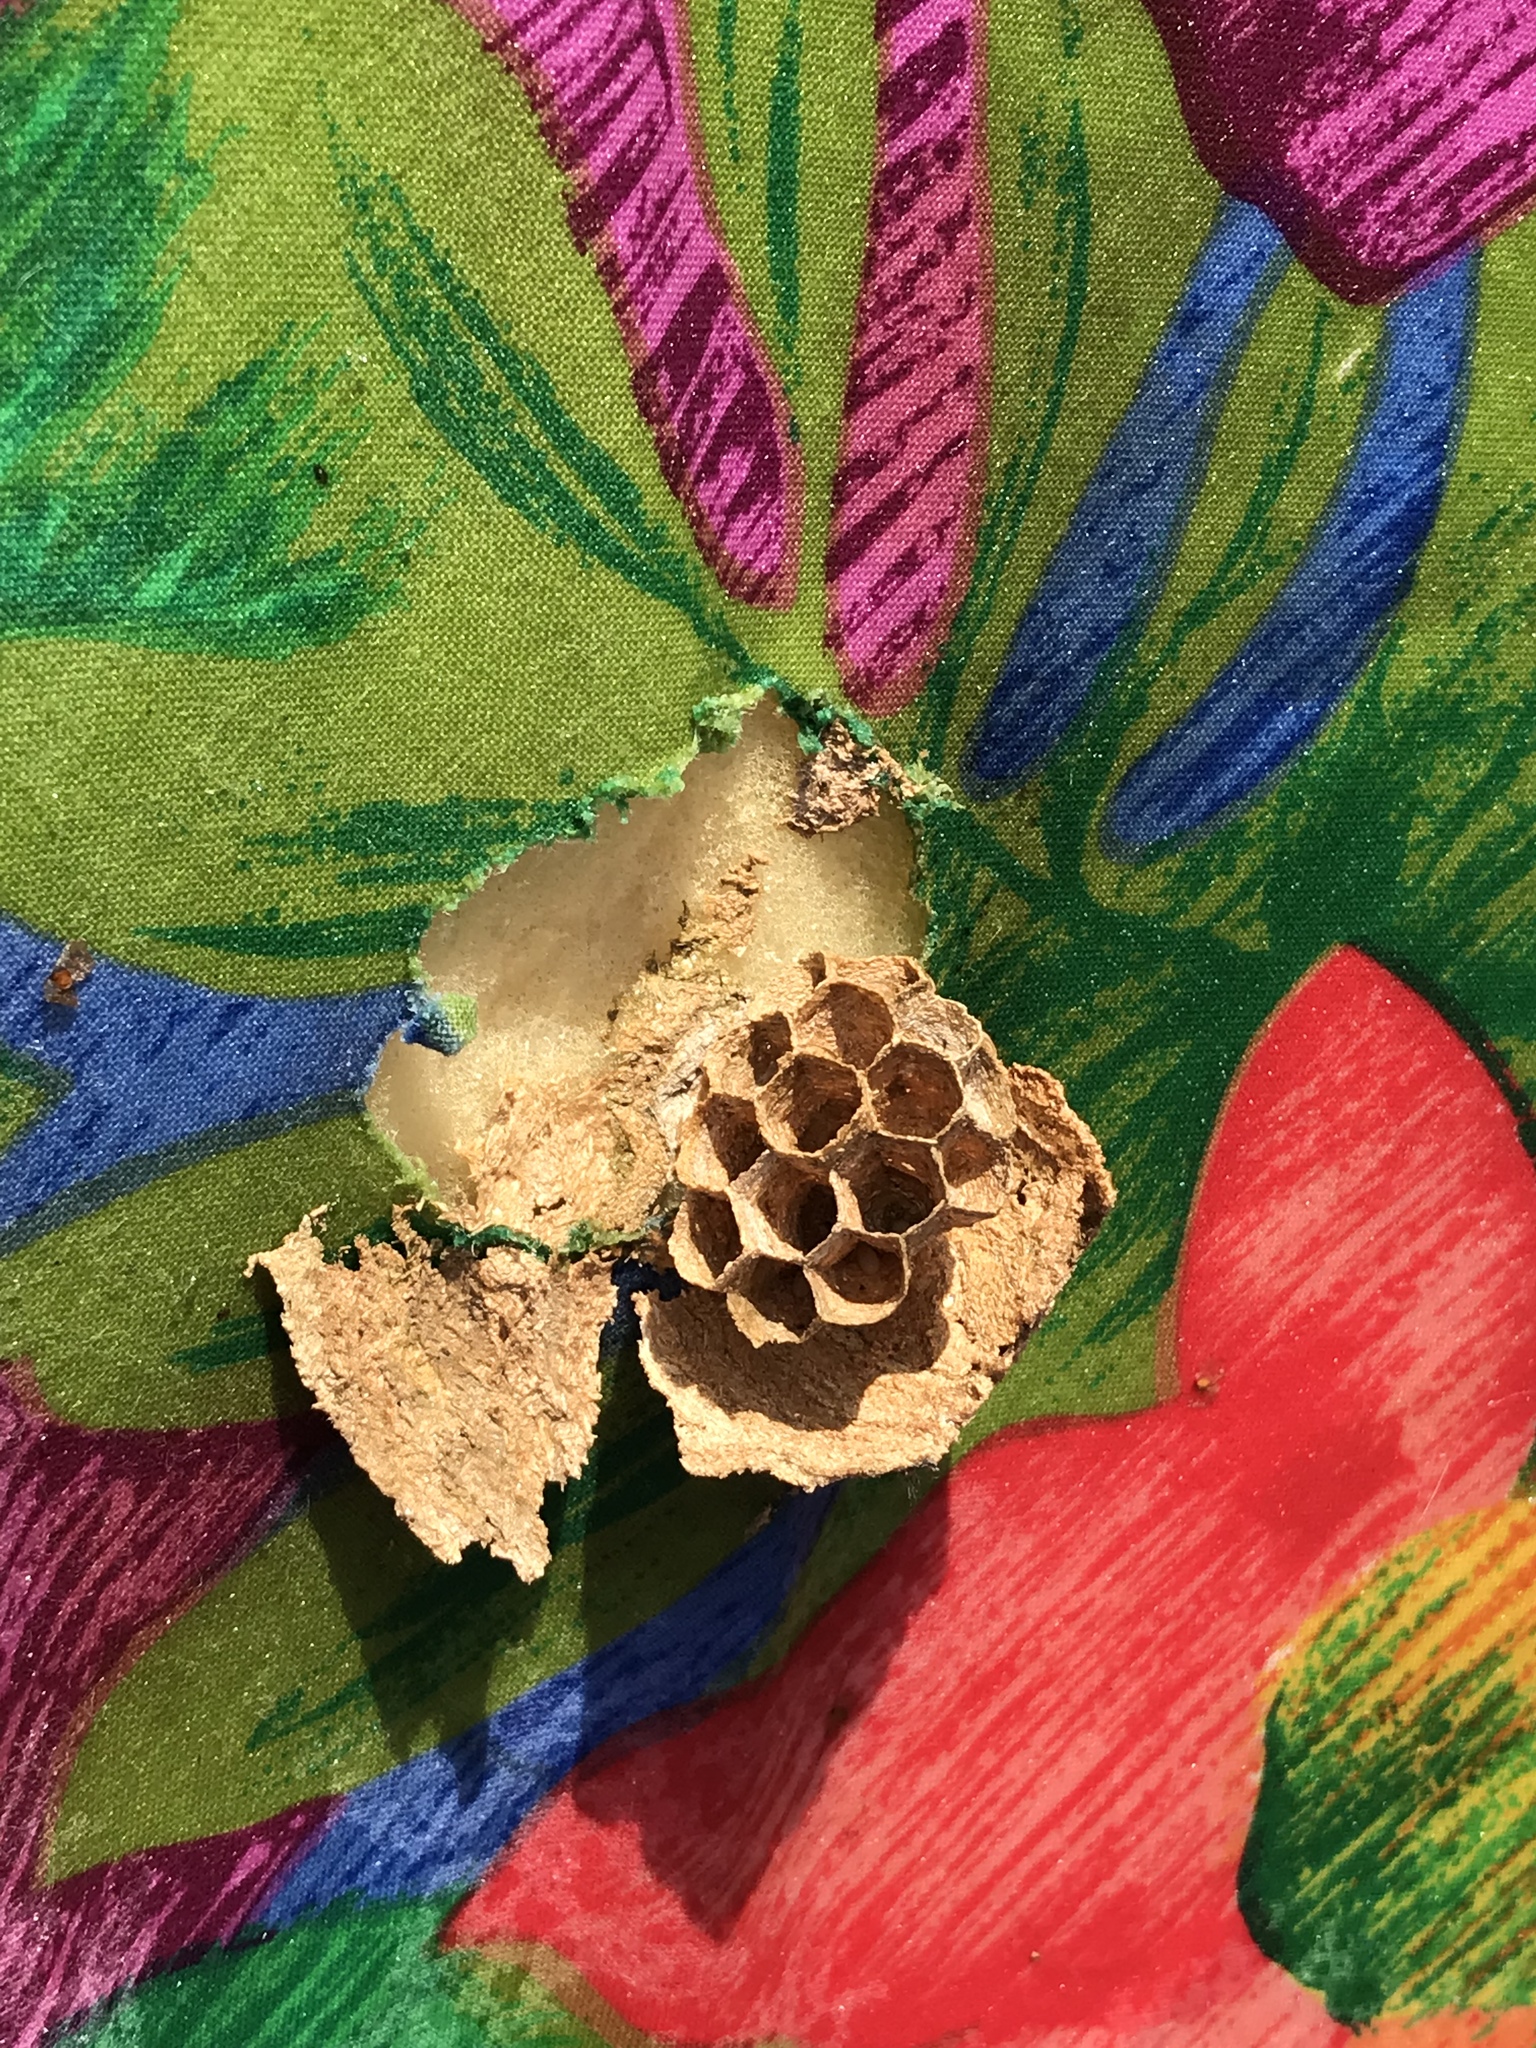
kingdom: Animalia
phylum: Arthropoda
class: Insecta
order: Hymenoptera
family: Vespidae
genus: Vespa
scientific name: Vespa crabro
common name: Hornet
